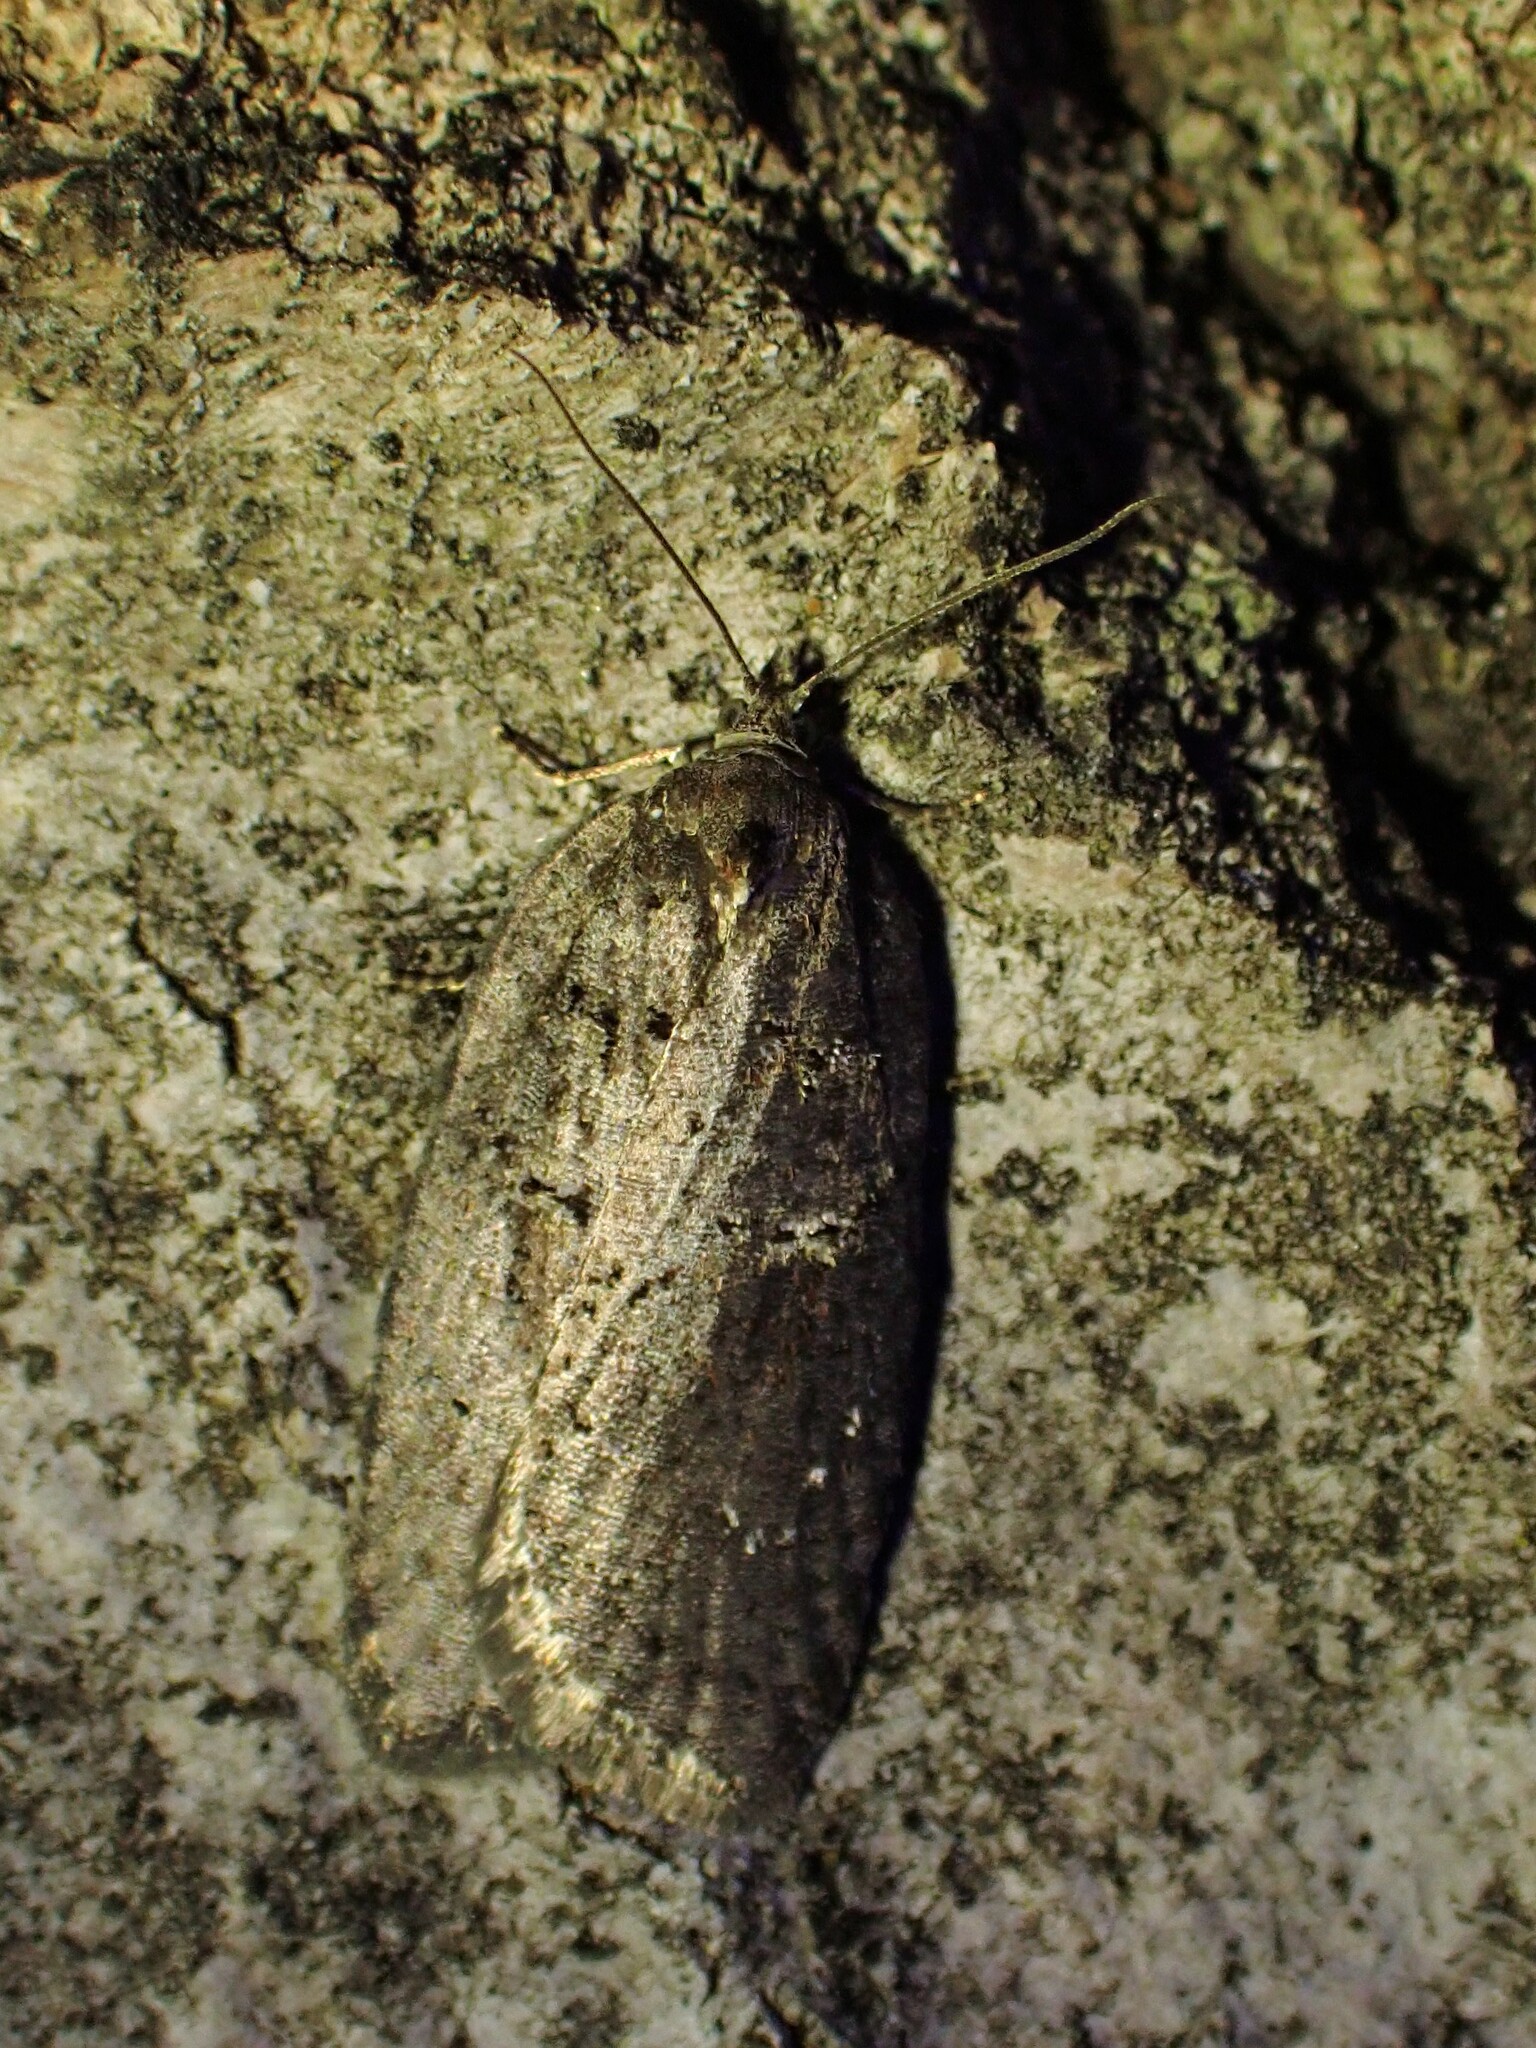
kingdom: Animalia
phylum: Arthropoda
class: Insecta
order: Lepidoptera
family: Tortricidae
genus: Acleris
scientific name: Acleris caliginosana
